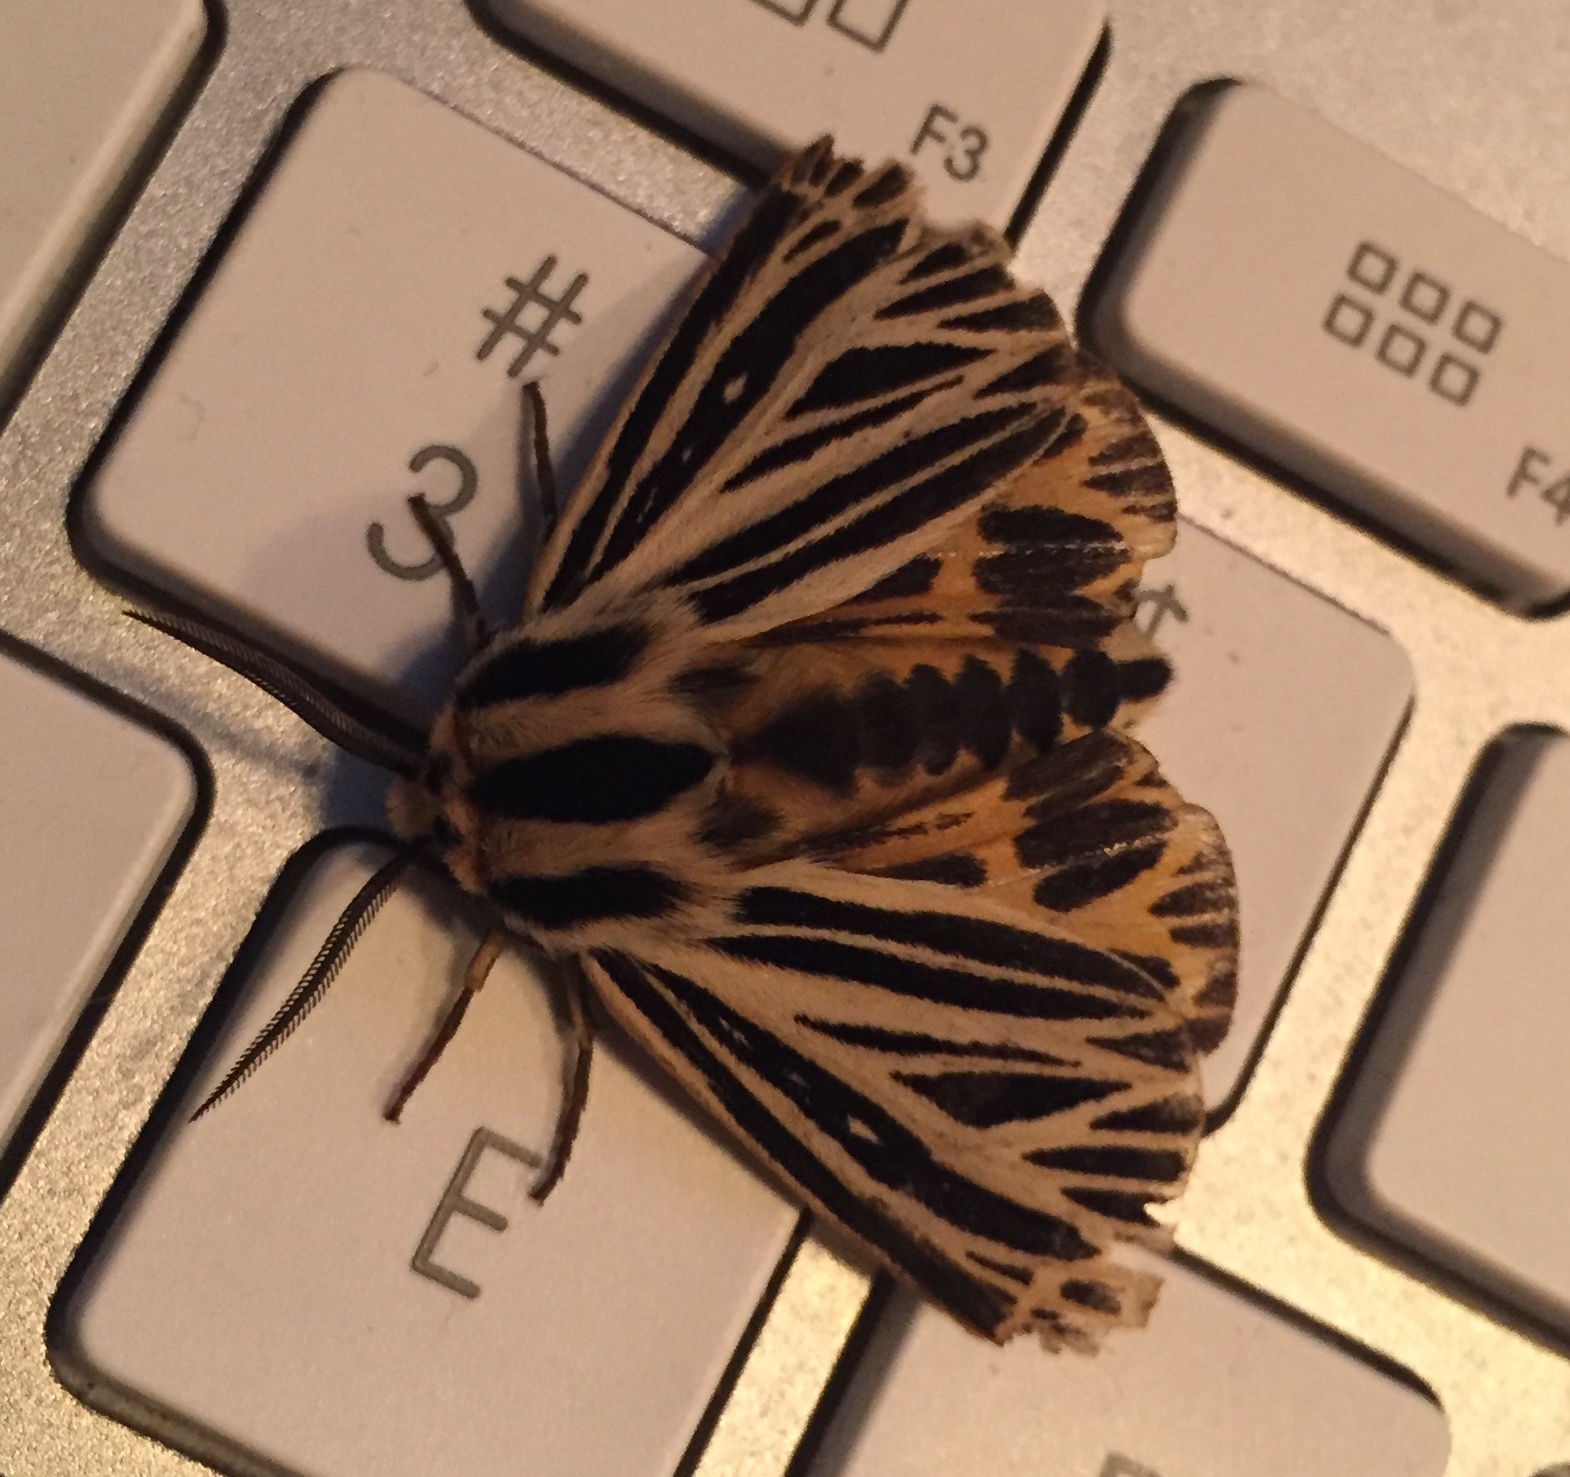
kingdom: Animalia
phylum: Arthropoda
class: Insecta
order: Lepidoptera
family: Erebidae
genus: Grammia
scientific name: Grammia virguncula
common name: Little tiger moth
